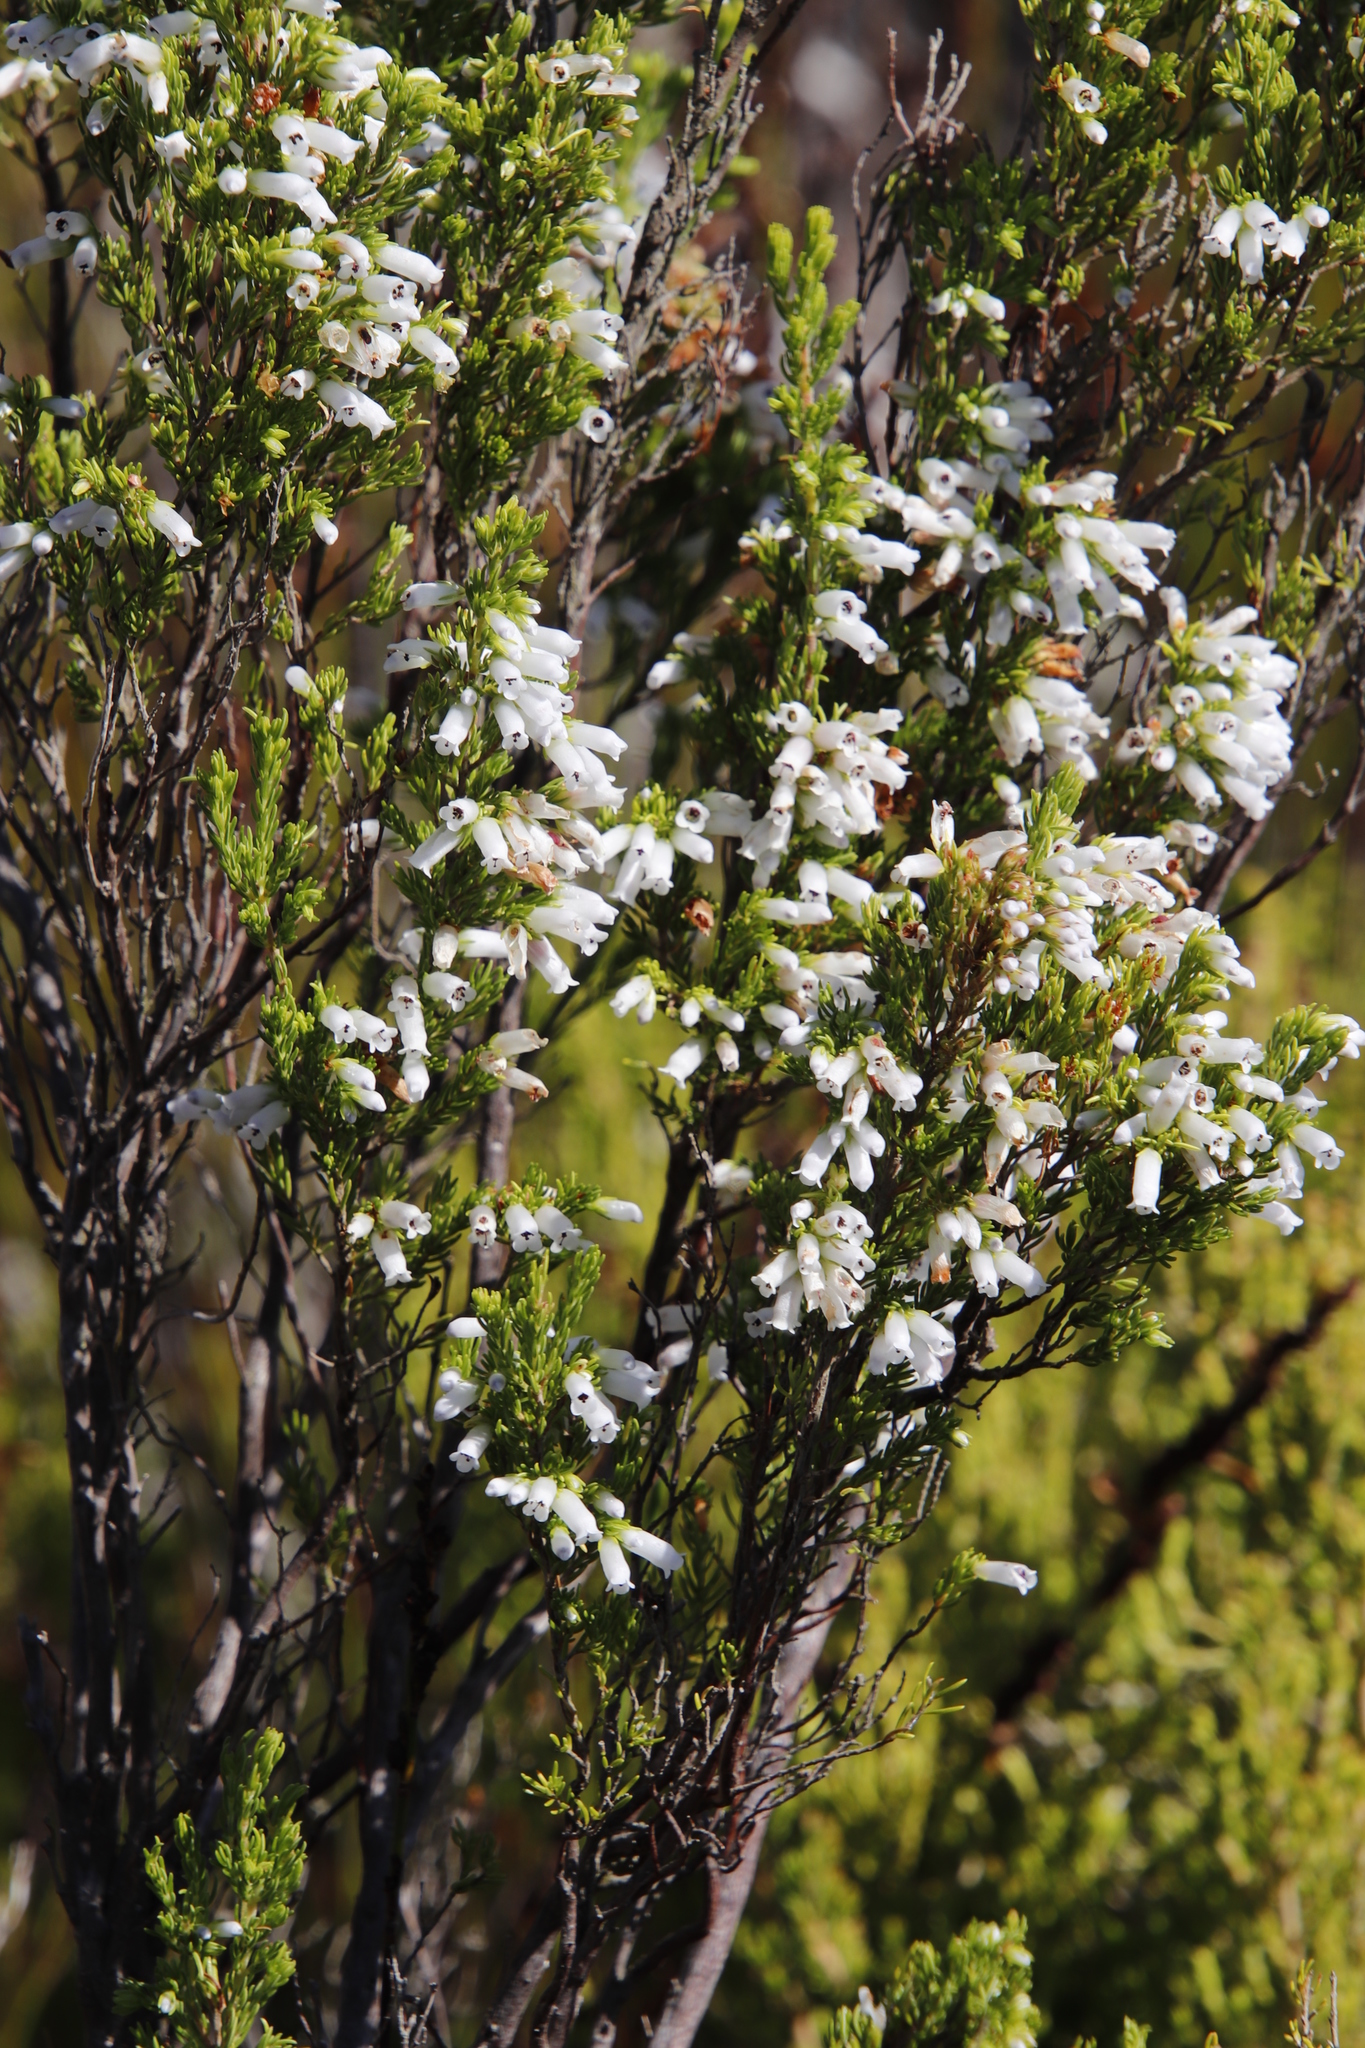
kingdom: Plantae
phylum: Tracheophyta
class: Magnoliopsida
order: Ericales
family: Ericaceae
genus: Erica
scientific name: Erica sitiens
